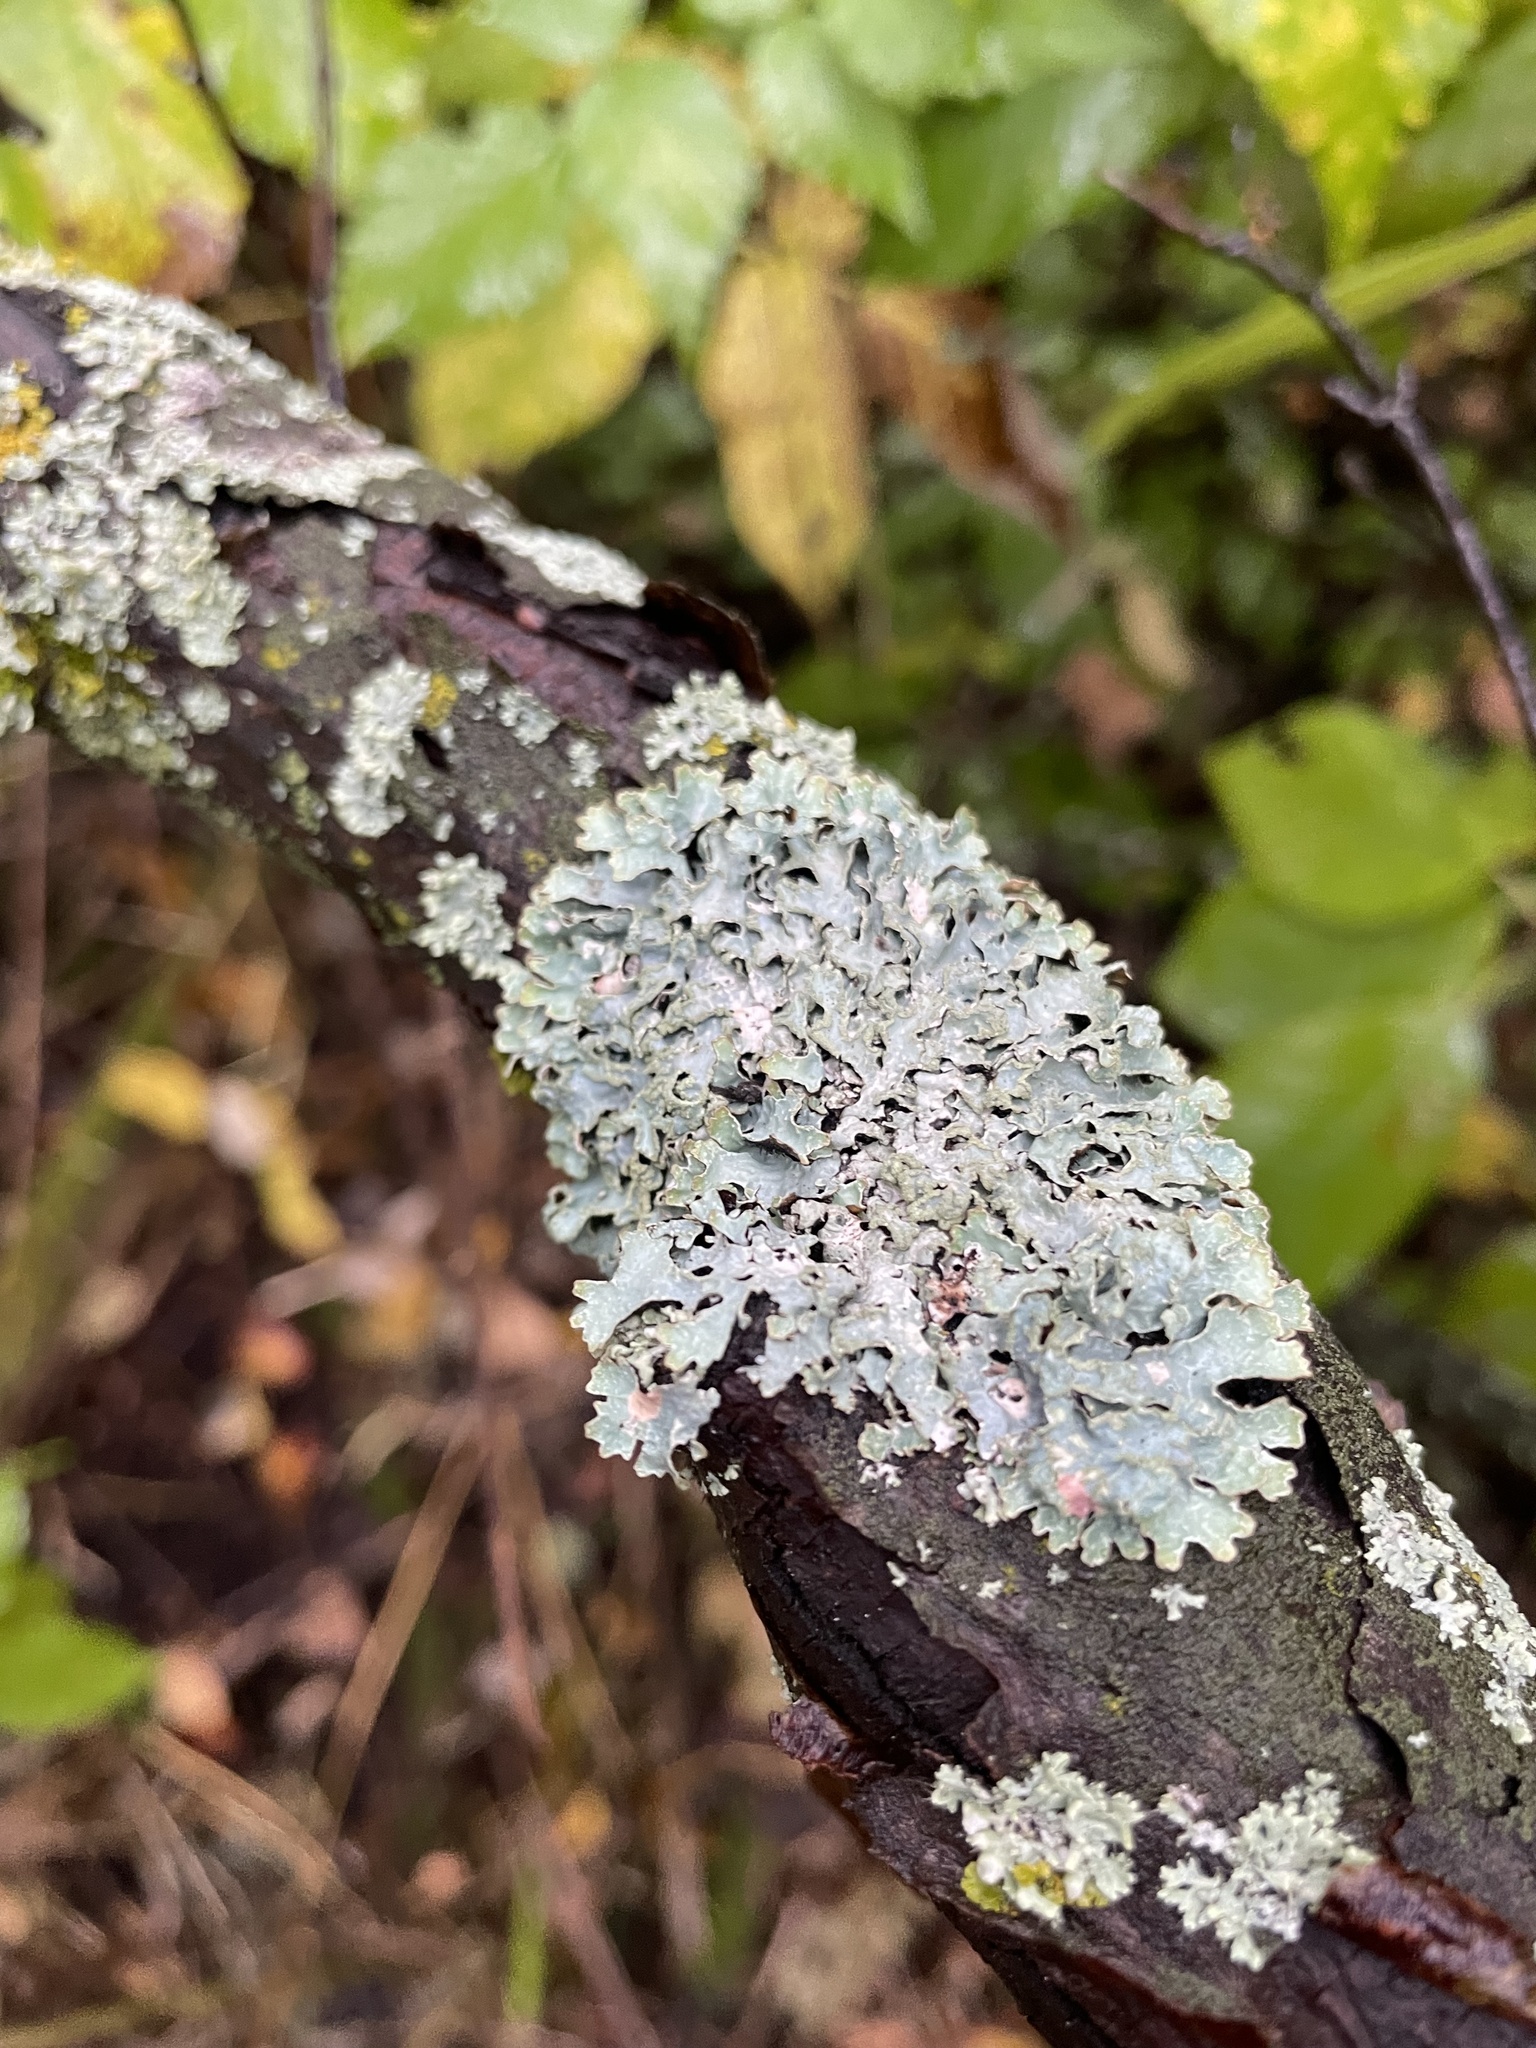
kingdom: Fungi
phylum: Ascomycota
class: Lecanoromycetes
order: Lecanorales
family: Parmeliaceae
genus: Parmelia
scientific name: Parmelia sulcata
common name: Netted shield lichen
